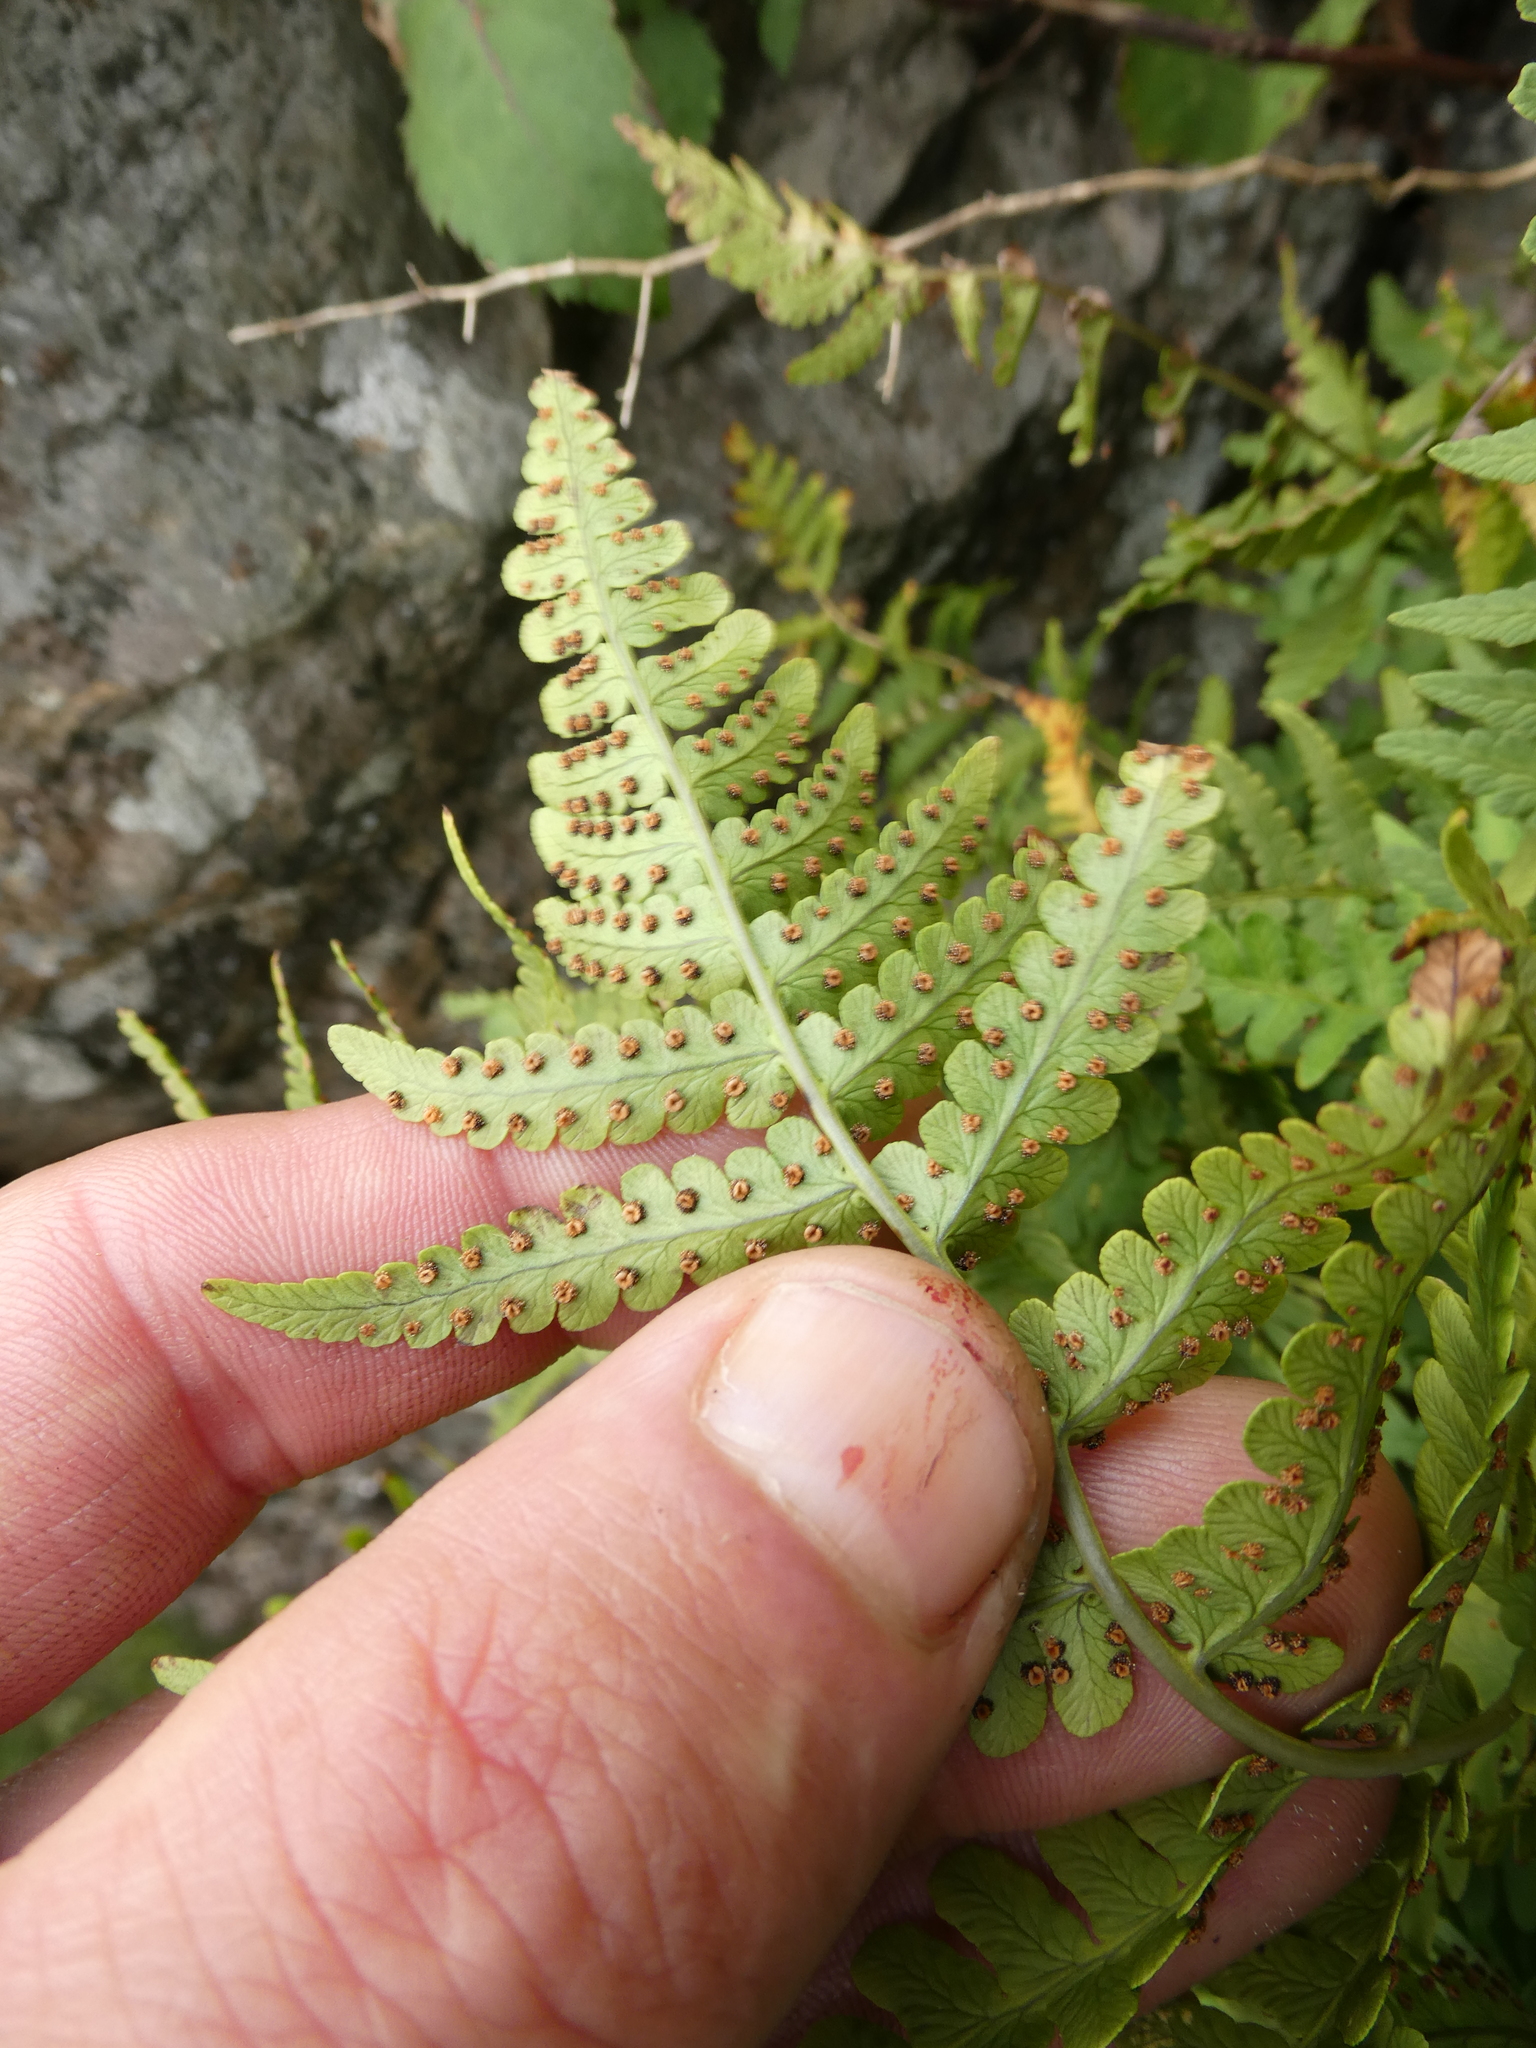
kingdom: Plantae
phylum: Tracheophyta
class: Polypodiopsida
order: Polypodiales
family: Dryopteridaceae
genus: Dryopteris
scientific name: Dryopteris marginalis
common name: Marginal wood fern
